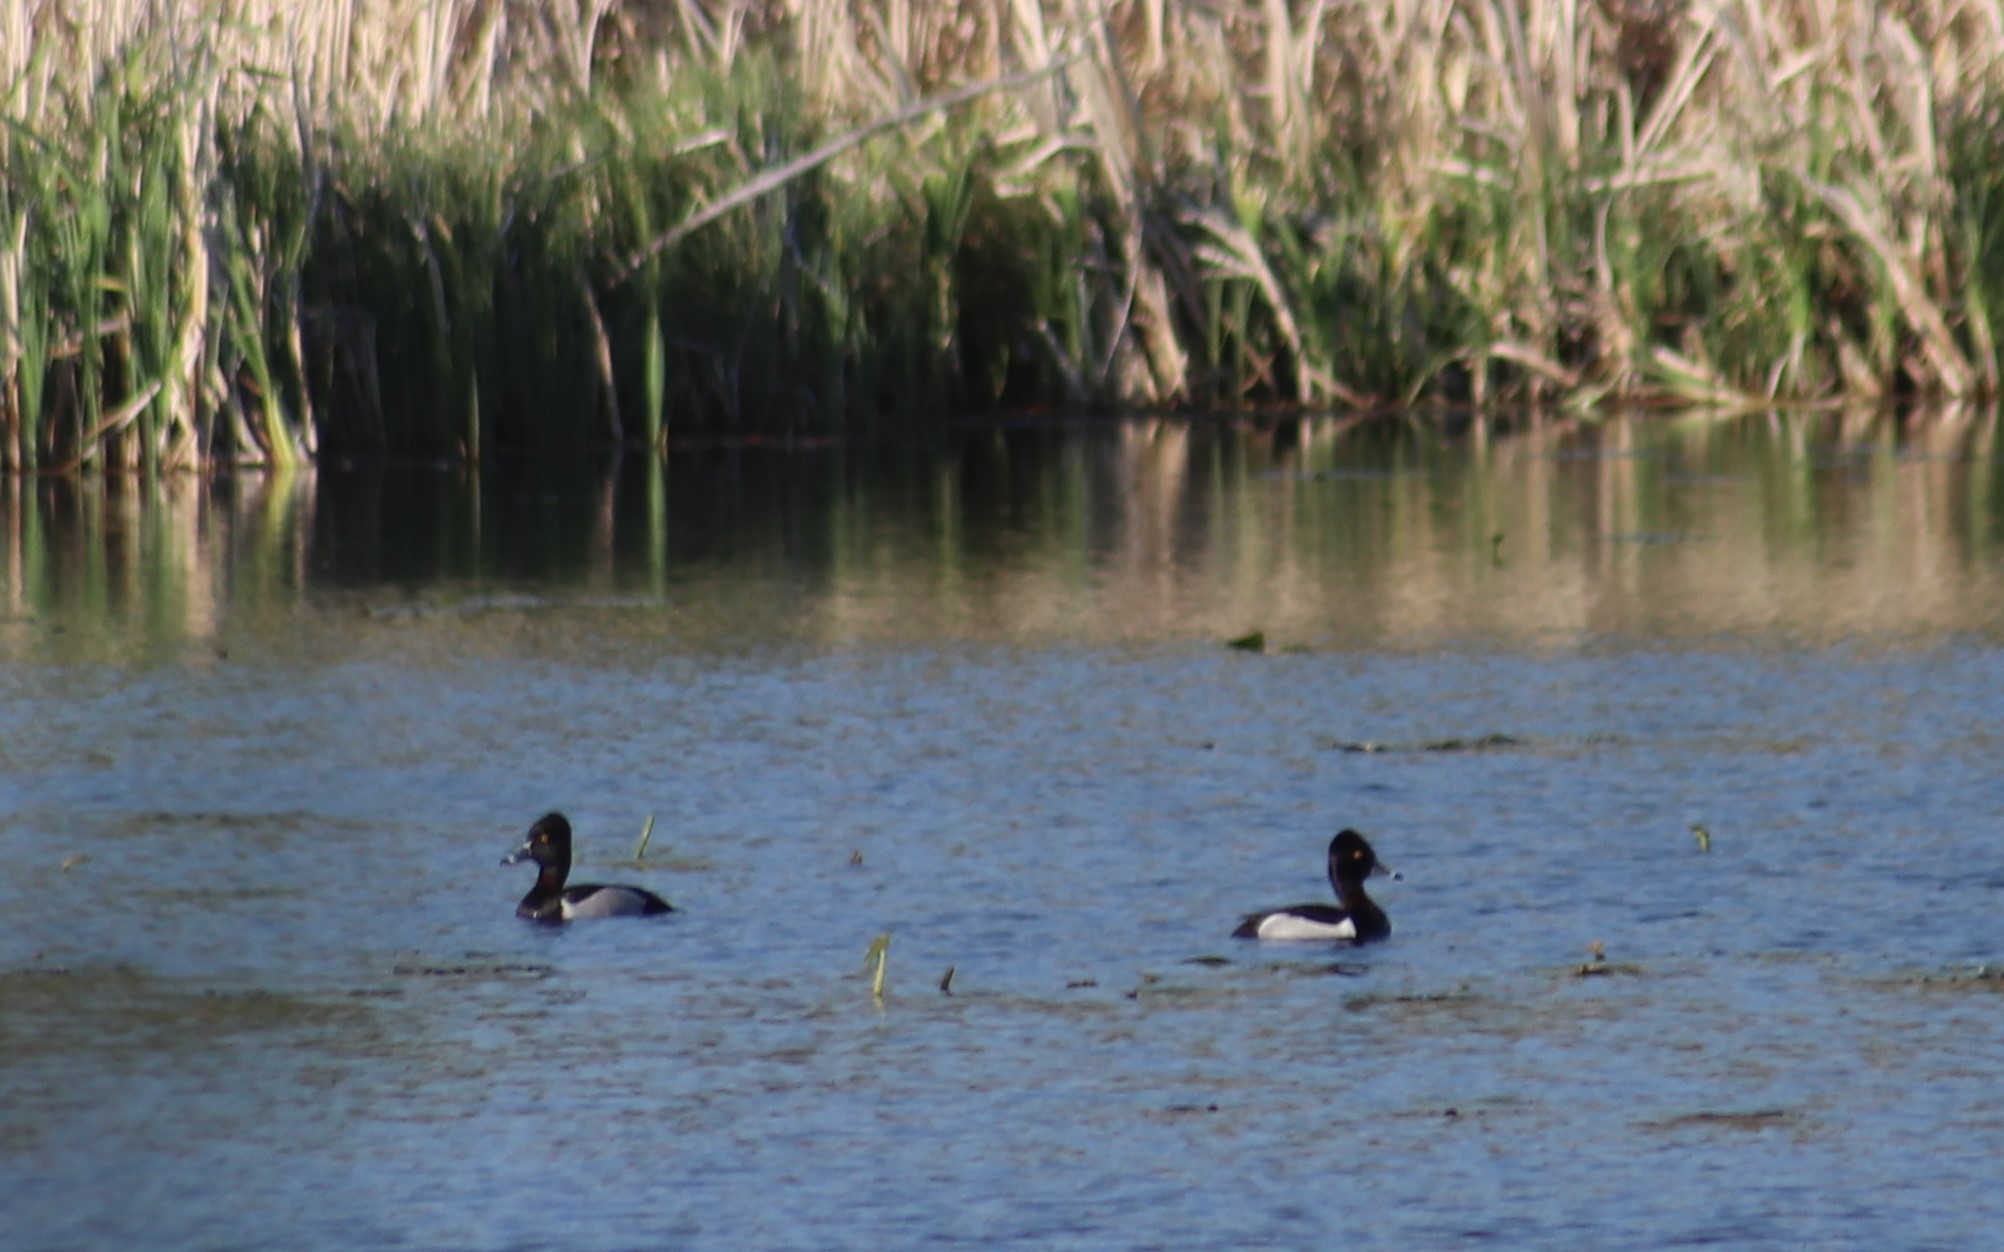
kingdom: Animalia
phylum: Chordata
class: Aves
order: Anseriformes
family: Anatidae
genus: Aythya
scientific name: Aythya collaris
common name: Ring-necked duck
